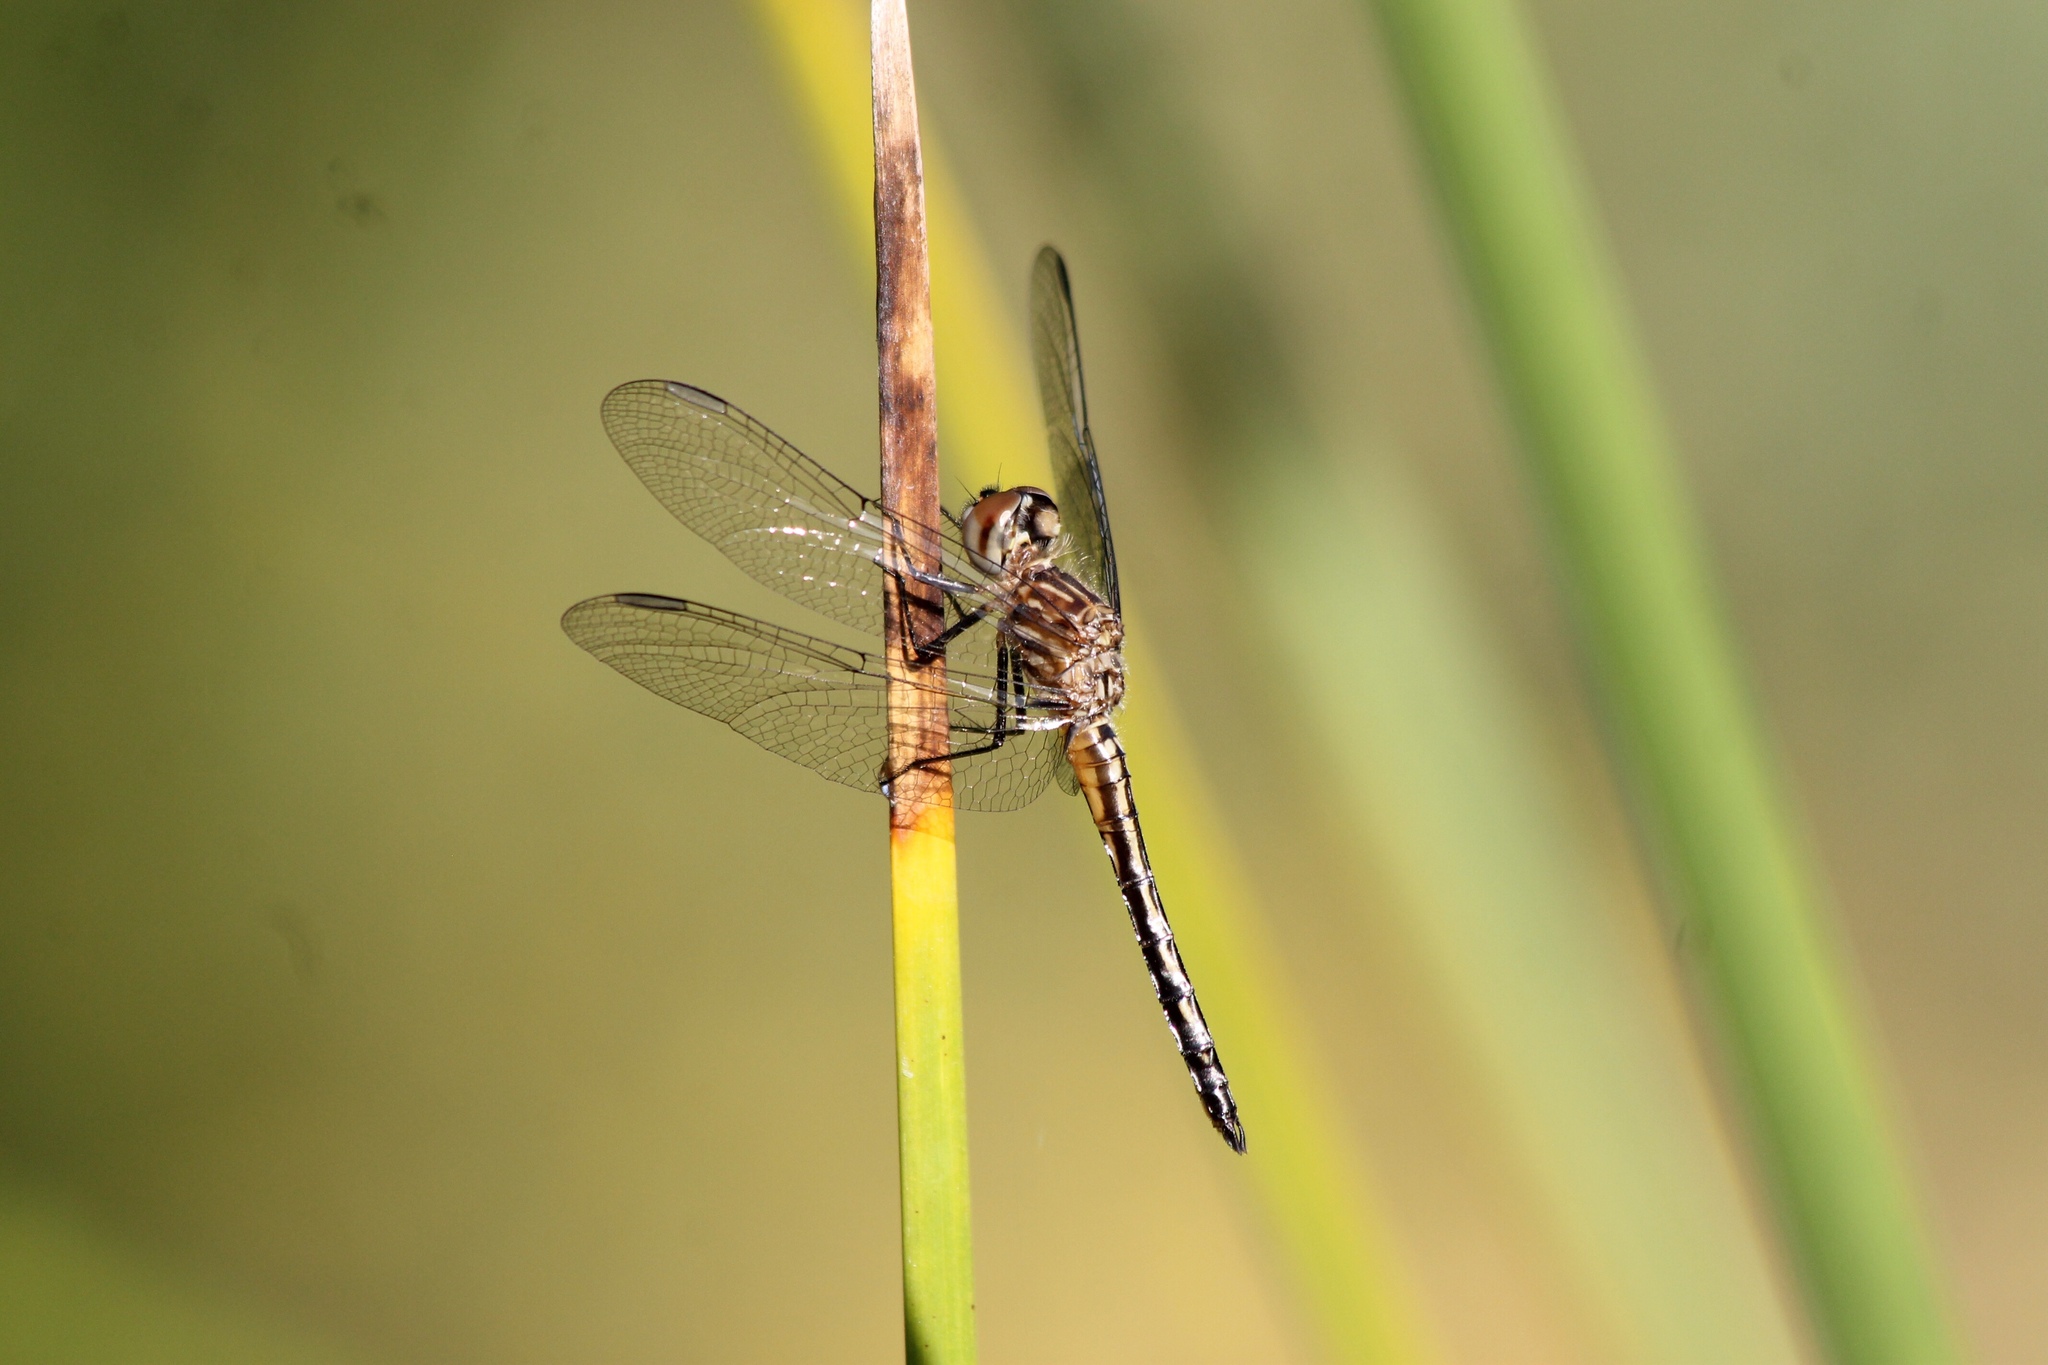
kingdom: Animalia
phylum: Arthropoda
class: Insecta
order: Odonata
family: Libellulidae
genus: Pachydiplax
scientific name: Pachydiplax longipennis
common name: Blue dasher
